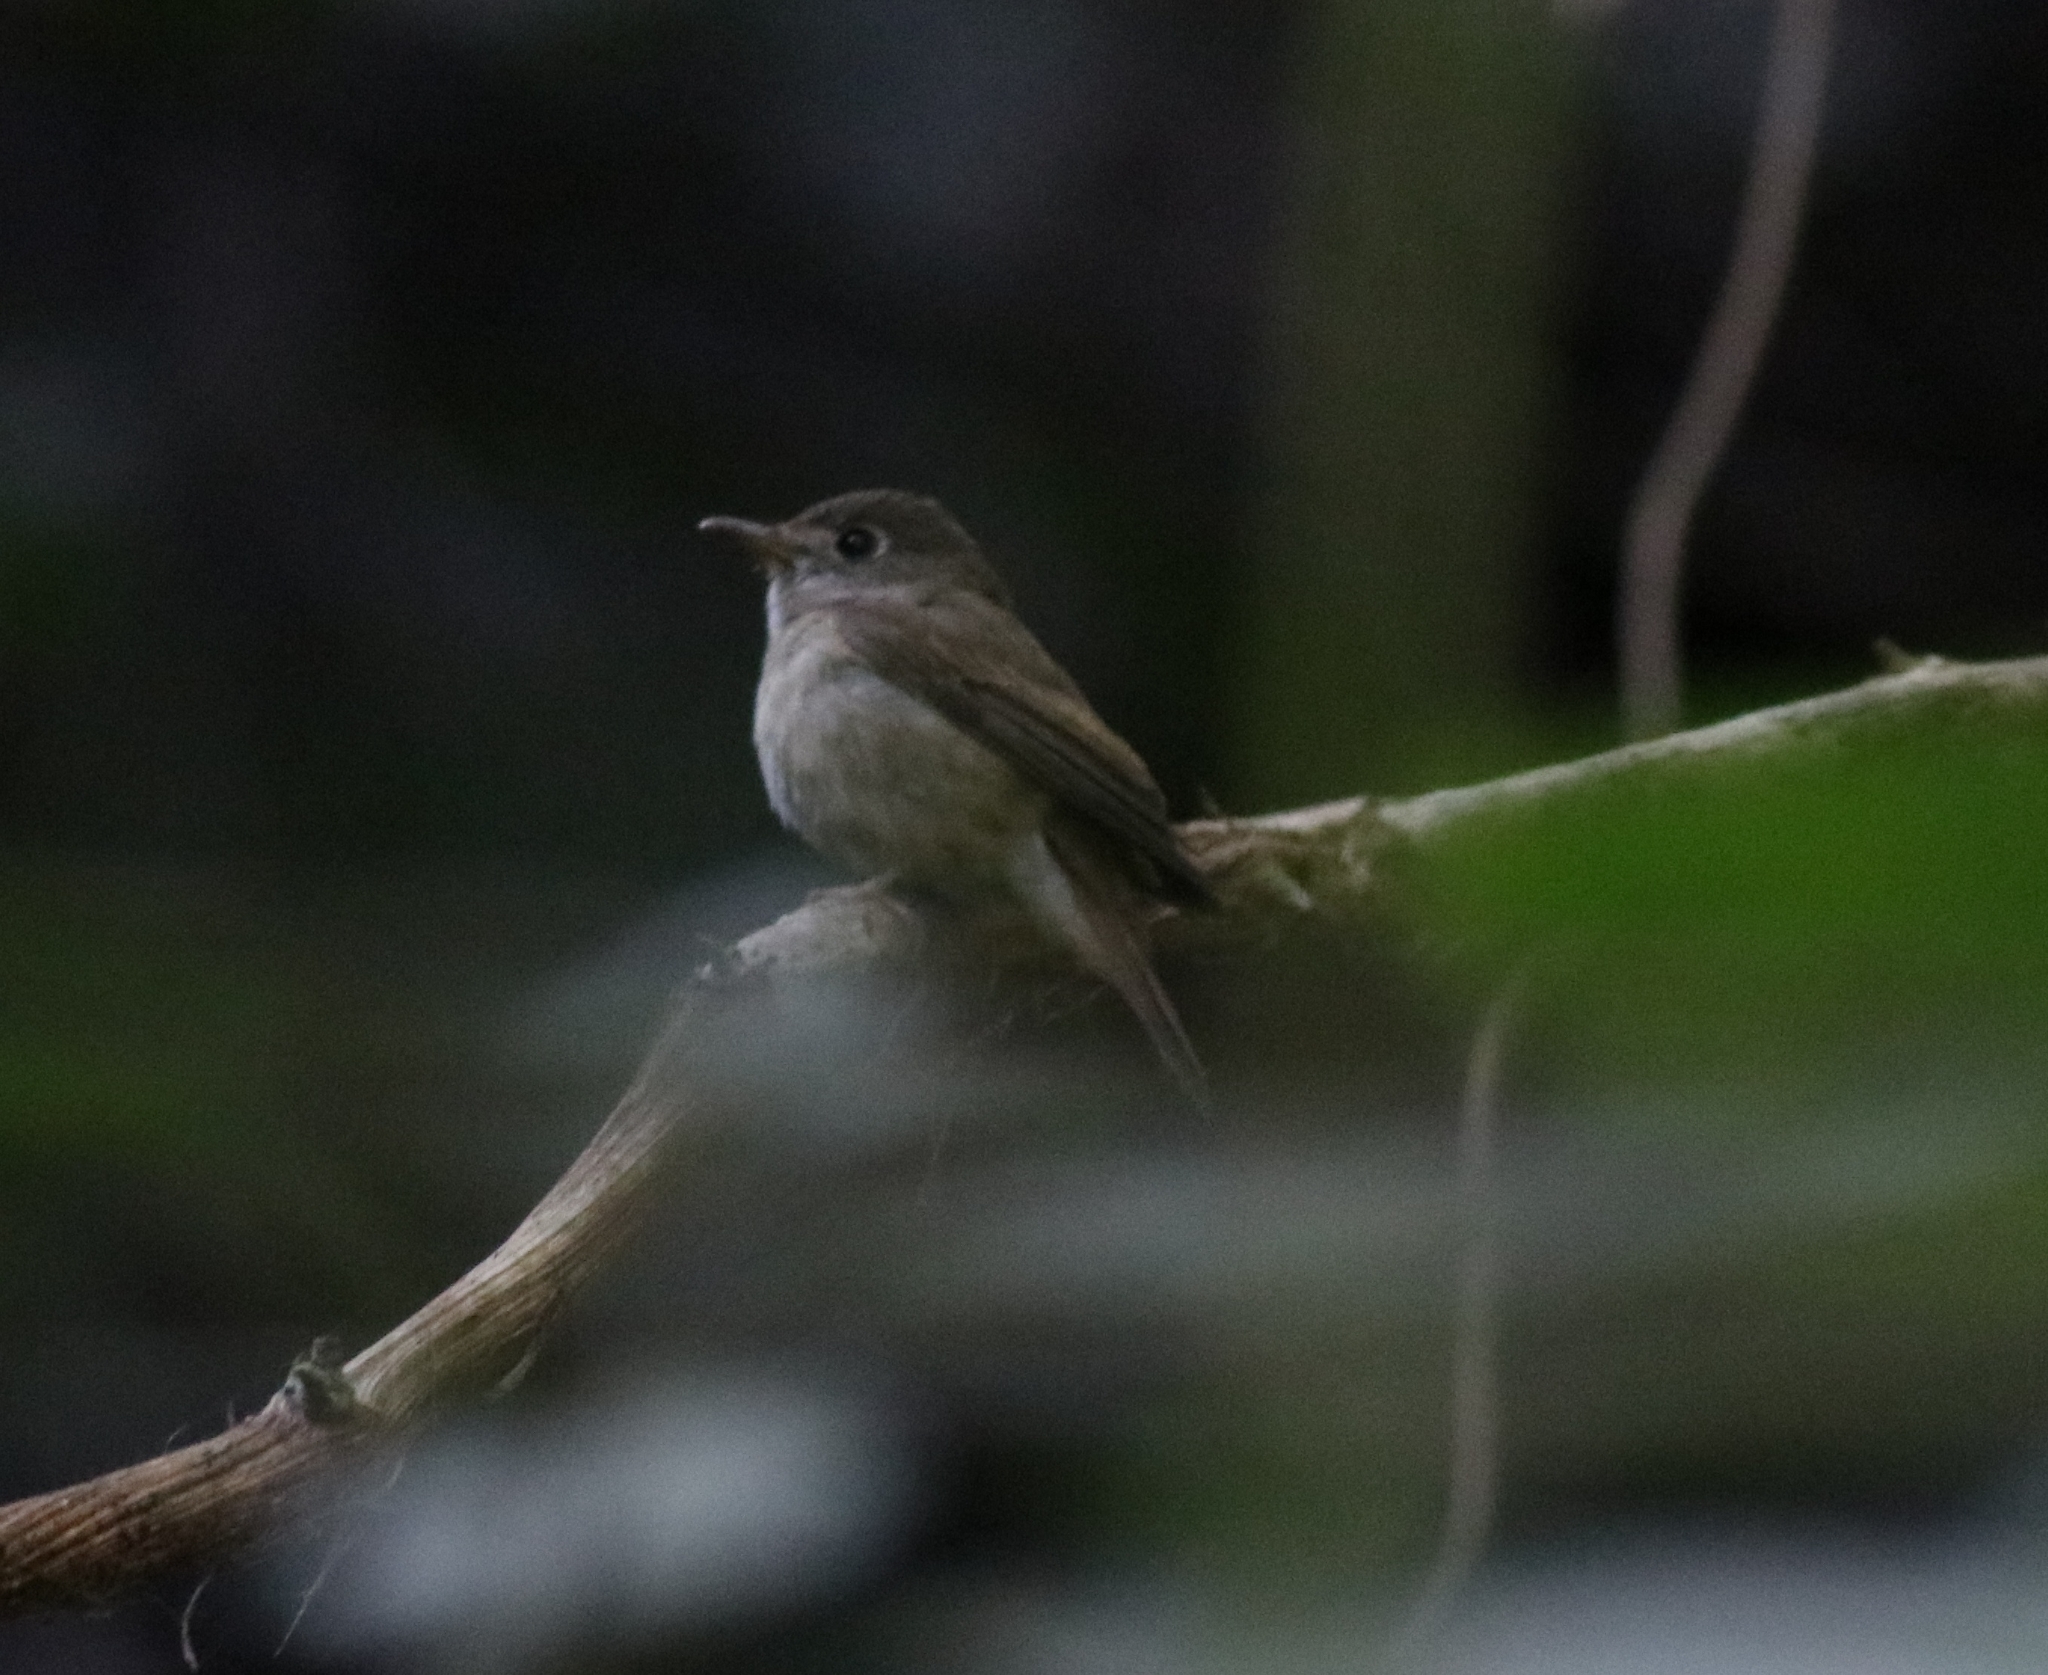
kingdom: Animalia
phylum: Chordata
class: Aves
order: Passeriformes
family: Muscicapidae
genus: Muscicapa
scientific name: Muscicapa muttui
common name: Brown-breasted flycatcher
